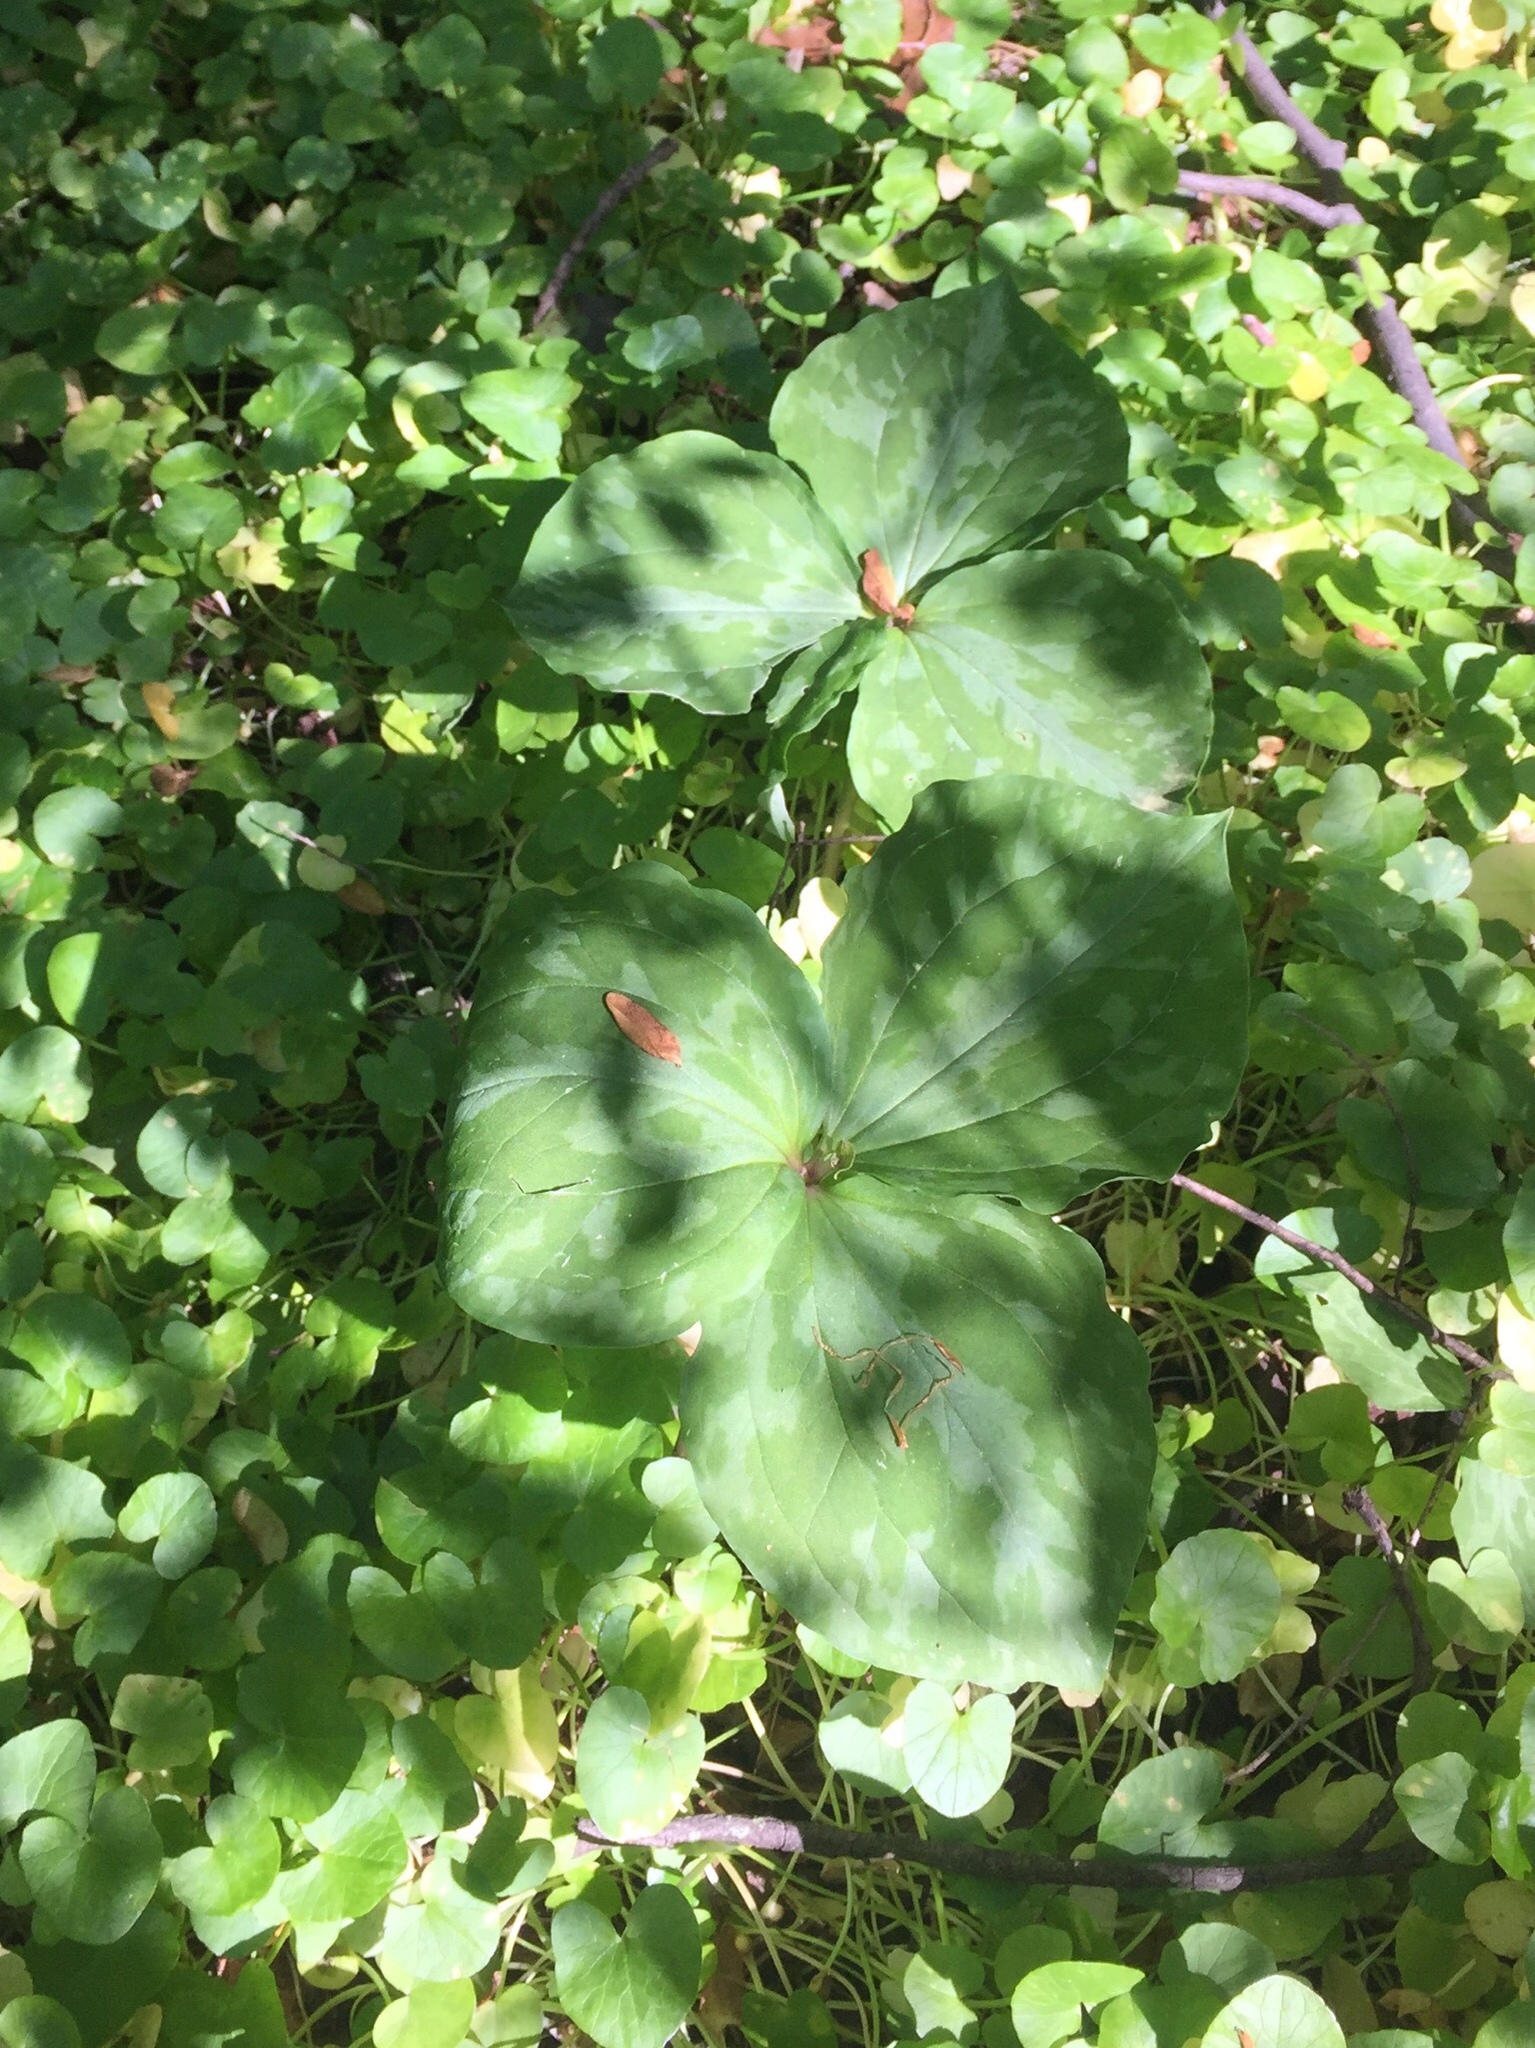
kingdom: Plantae
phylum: Tracheophyta
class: Liliopsida
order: Liliales
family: Melanthiaceae
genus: Trillium
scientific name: Trillium cuneatum
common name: Cuneate trillium
